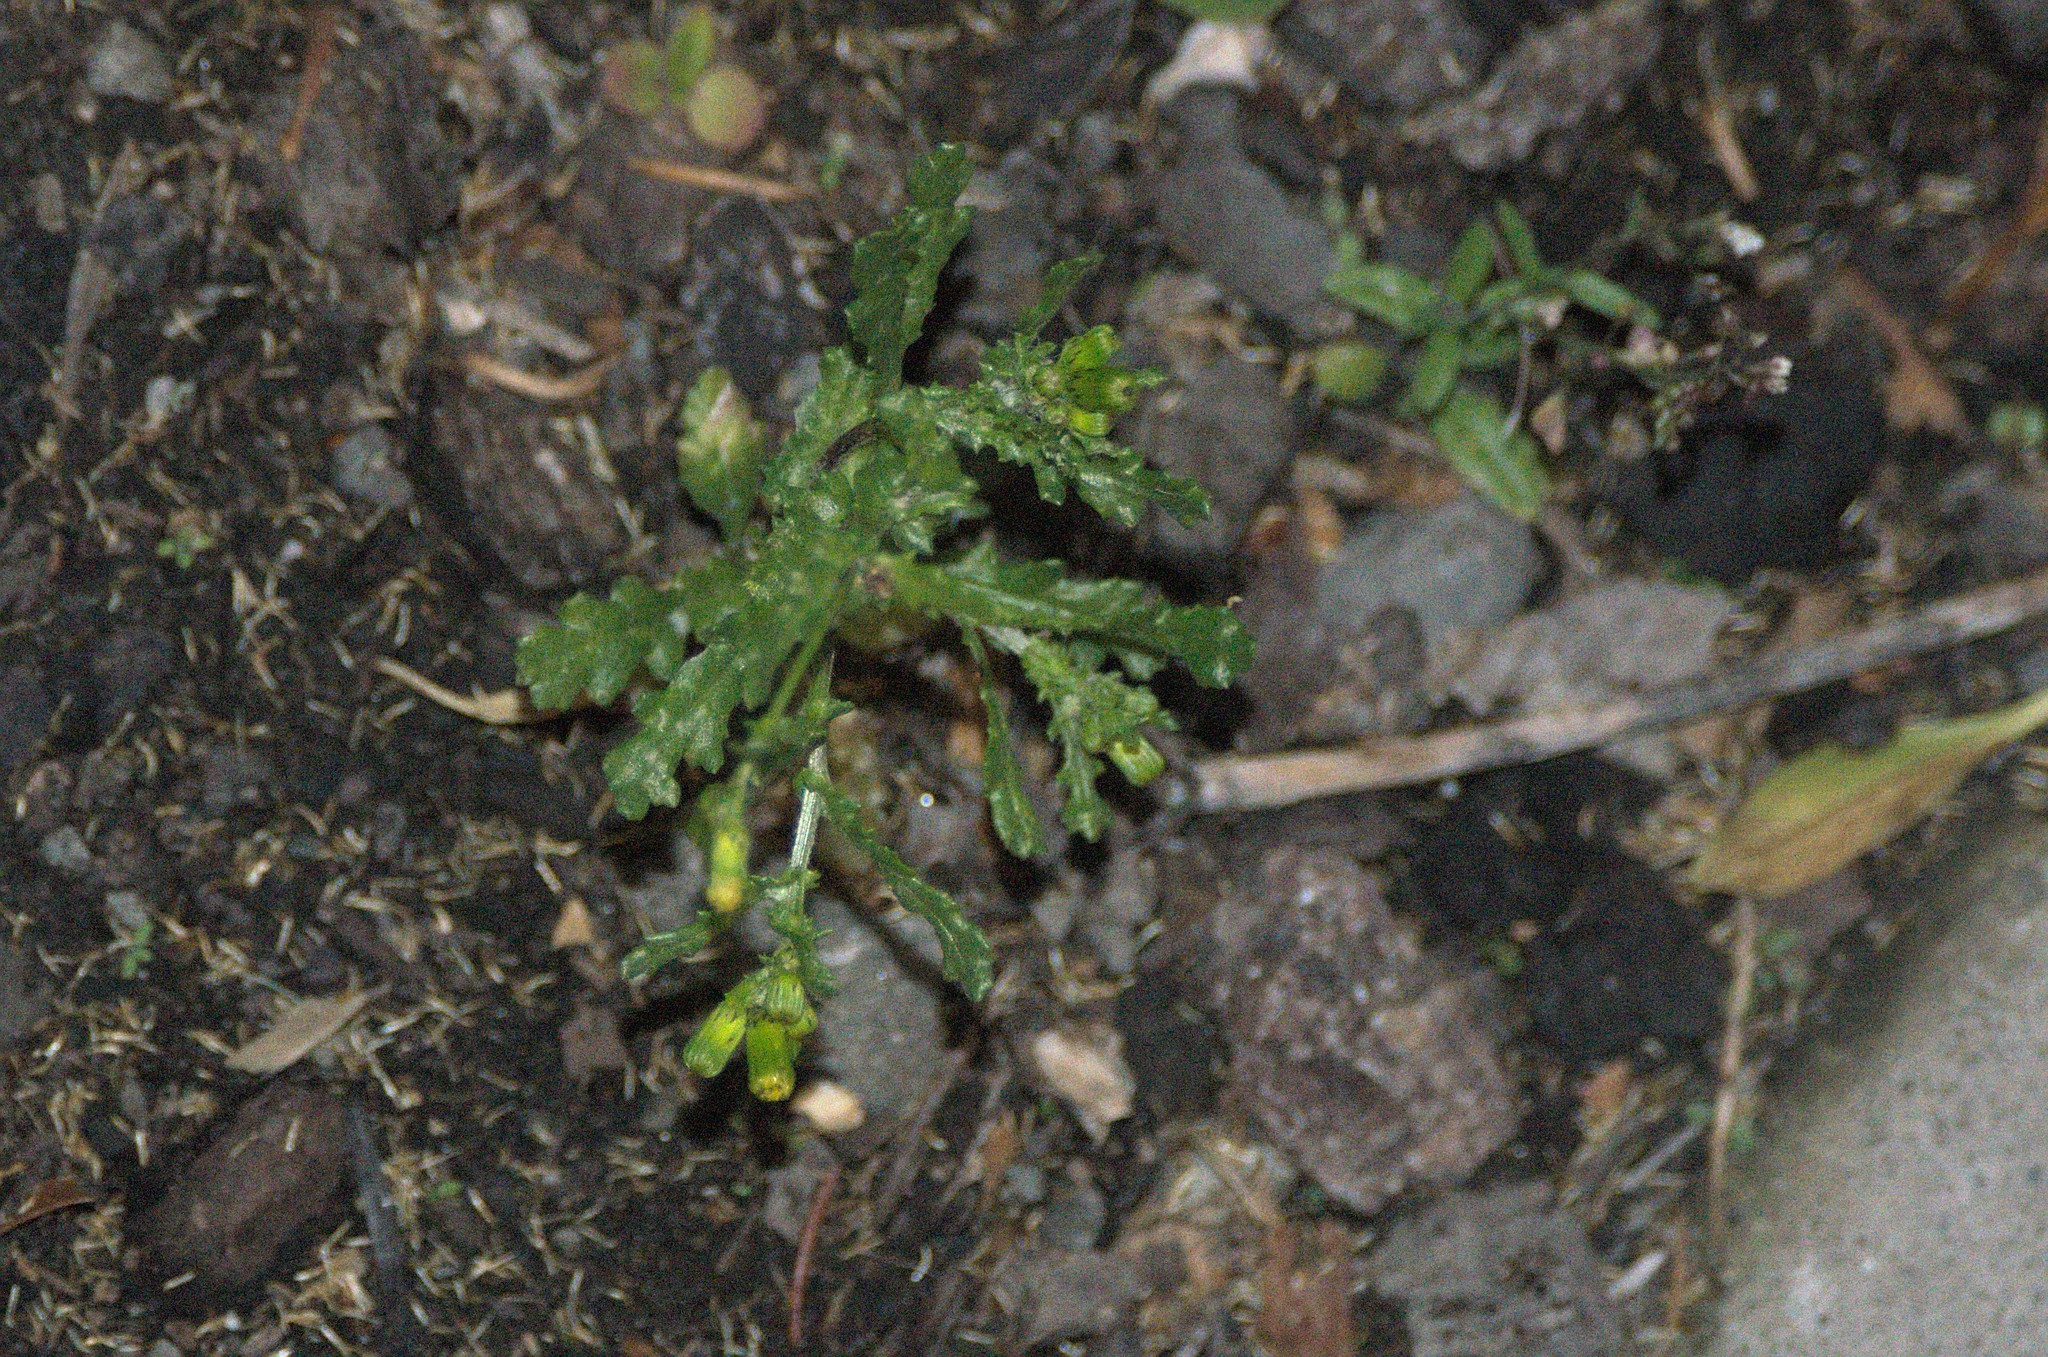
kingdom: Plantae
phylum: Tracheophyta
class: Magnoliopsida
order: Asterales
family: Asteraceae
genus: Senecio
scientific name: Senecio vulgaris
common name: Old-man-in-the-spring
